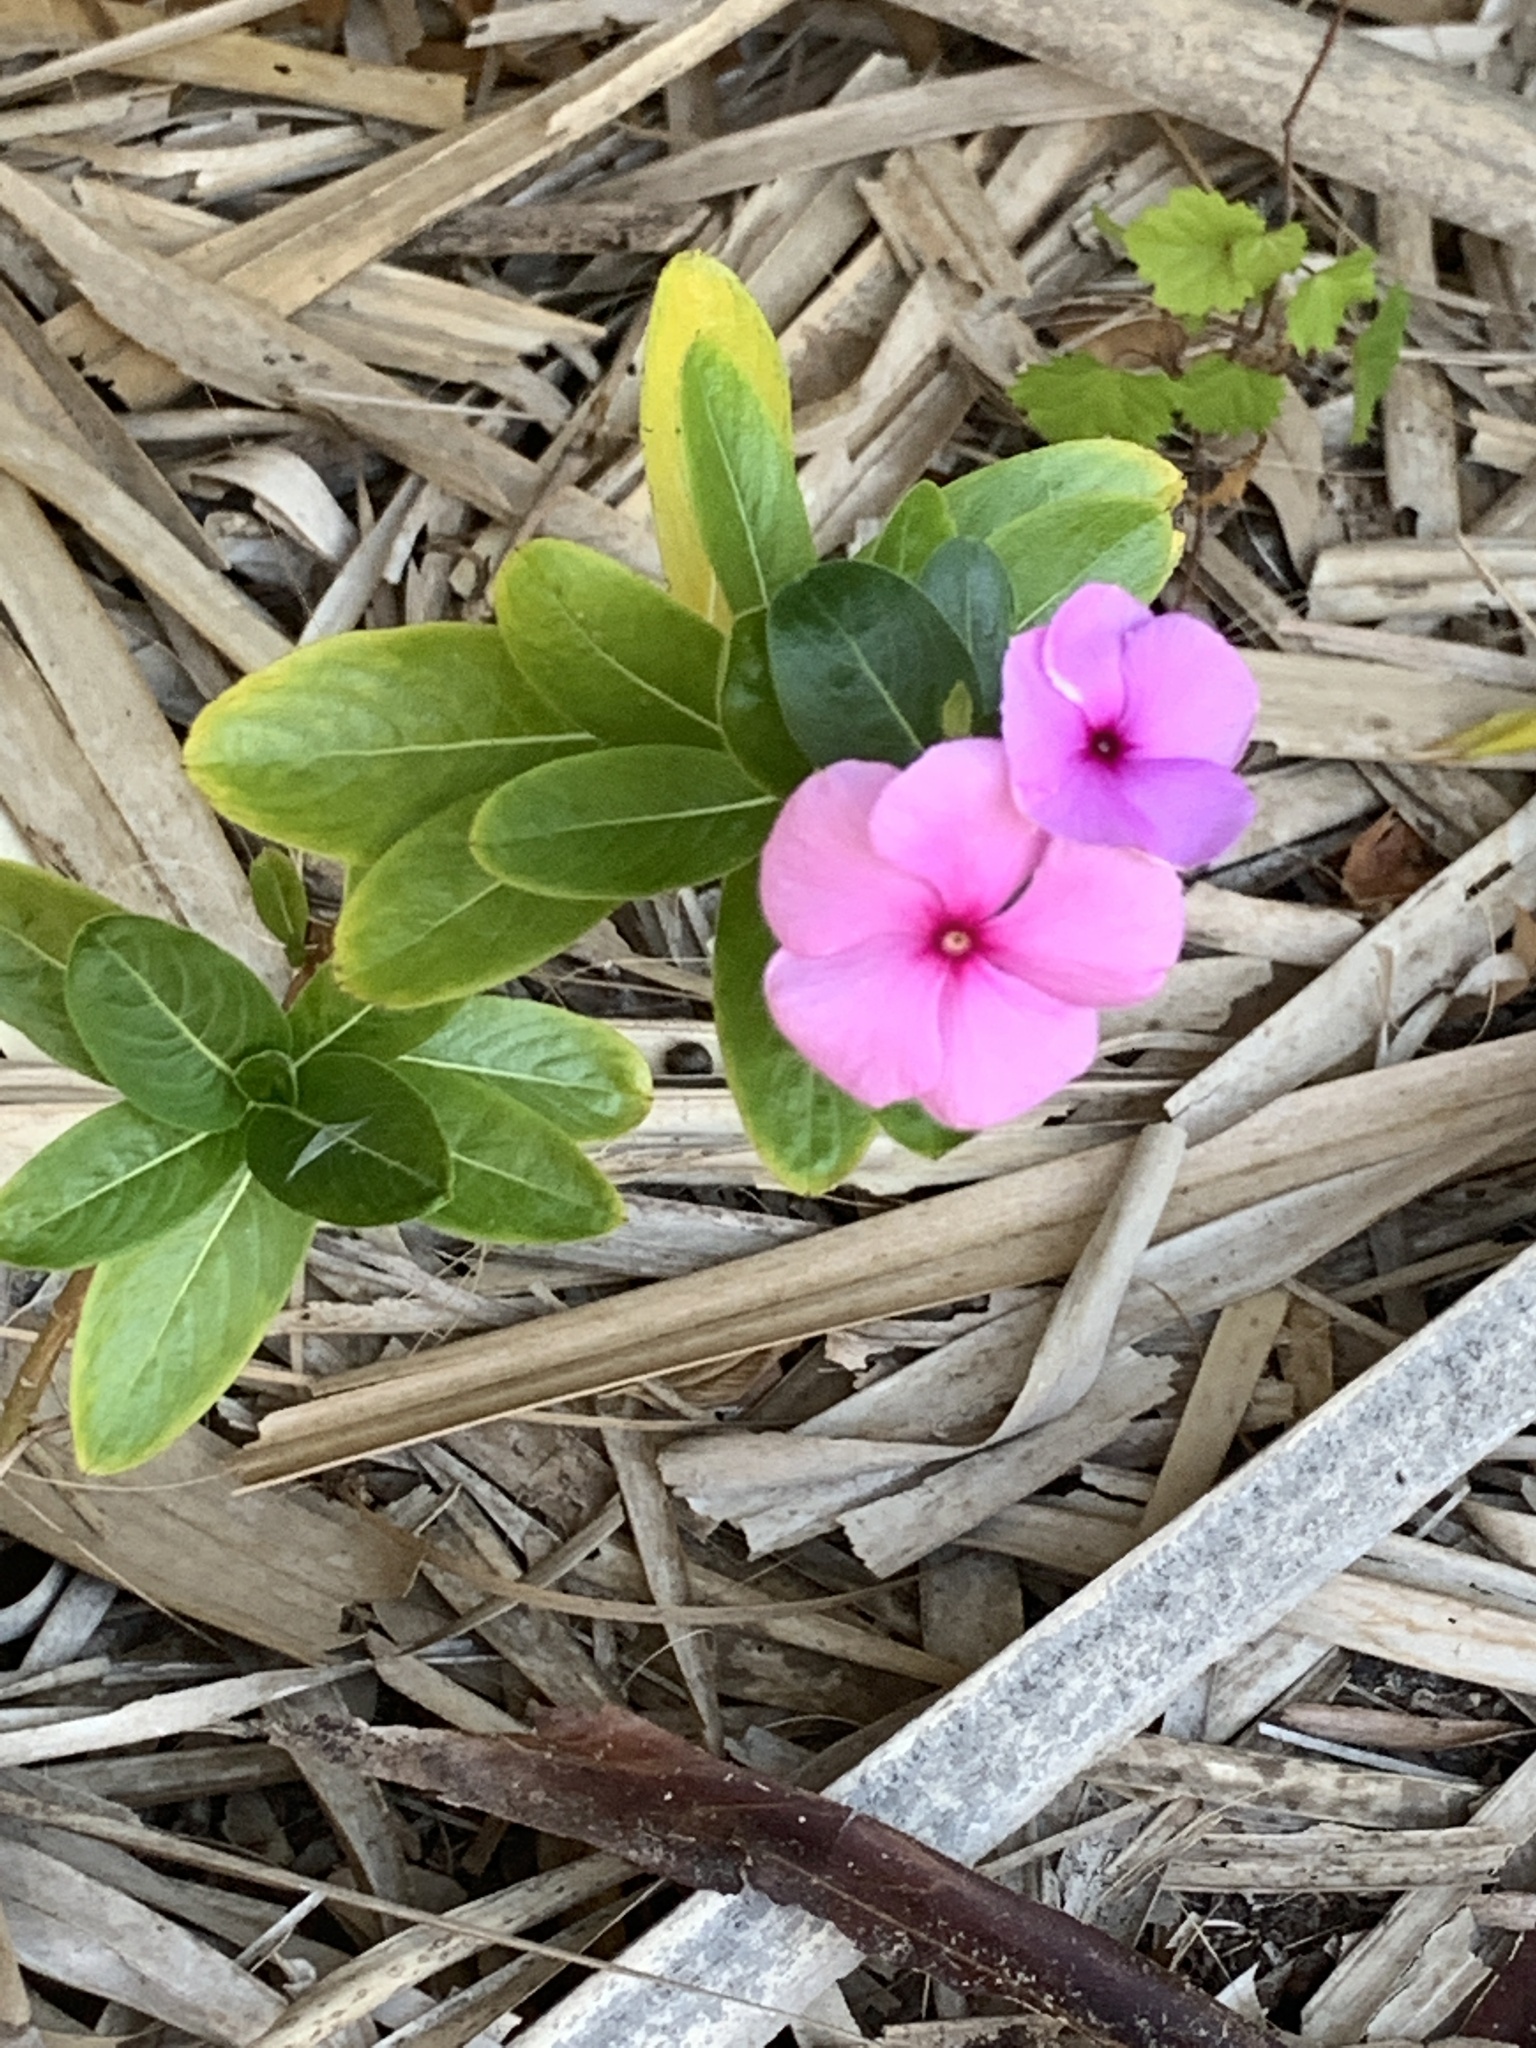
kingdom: Plantae
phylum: Tracheophyta
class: Magnoliopsida
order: Gentianales
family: Apocynaceae
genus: Catharanthus
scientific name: Catharanthus roseus
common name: Madagascar periwinkle
